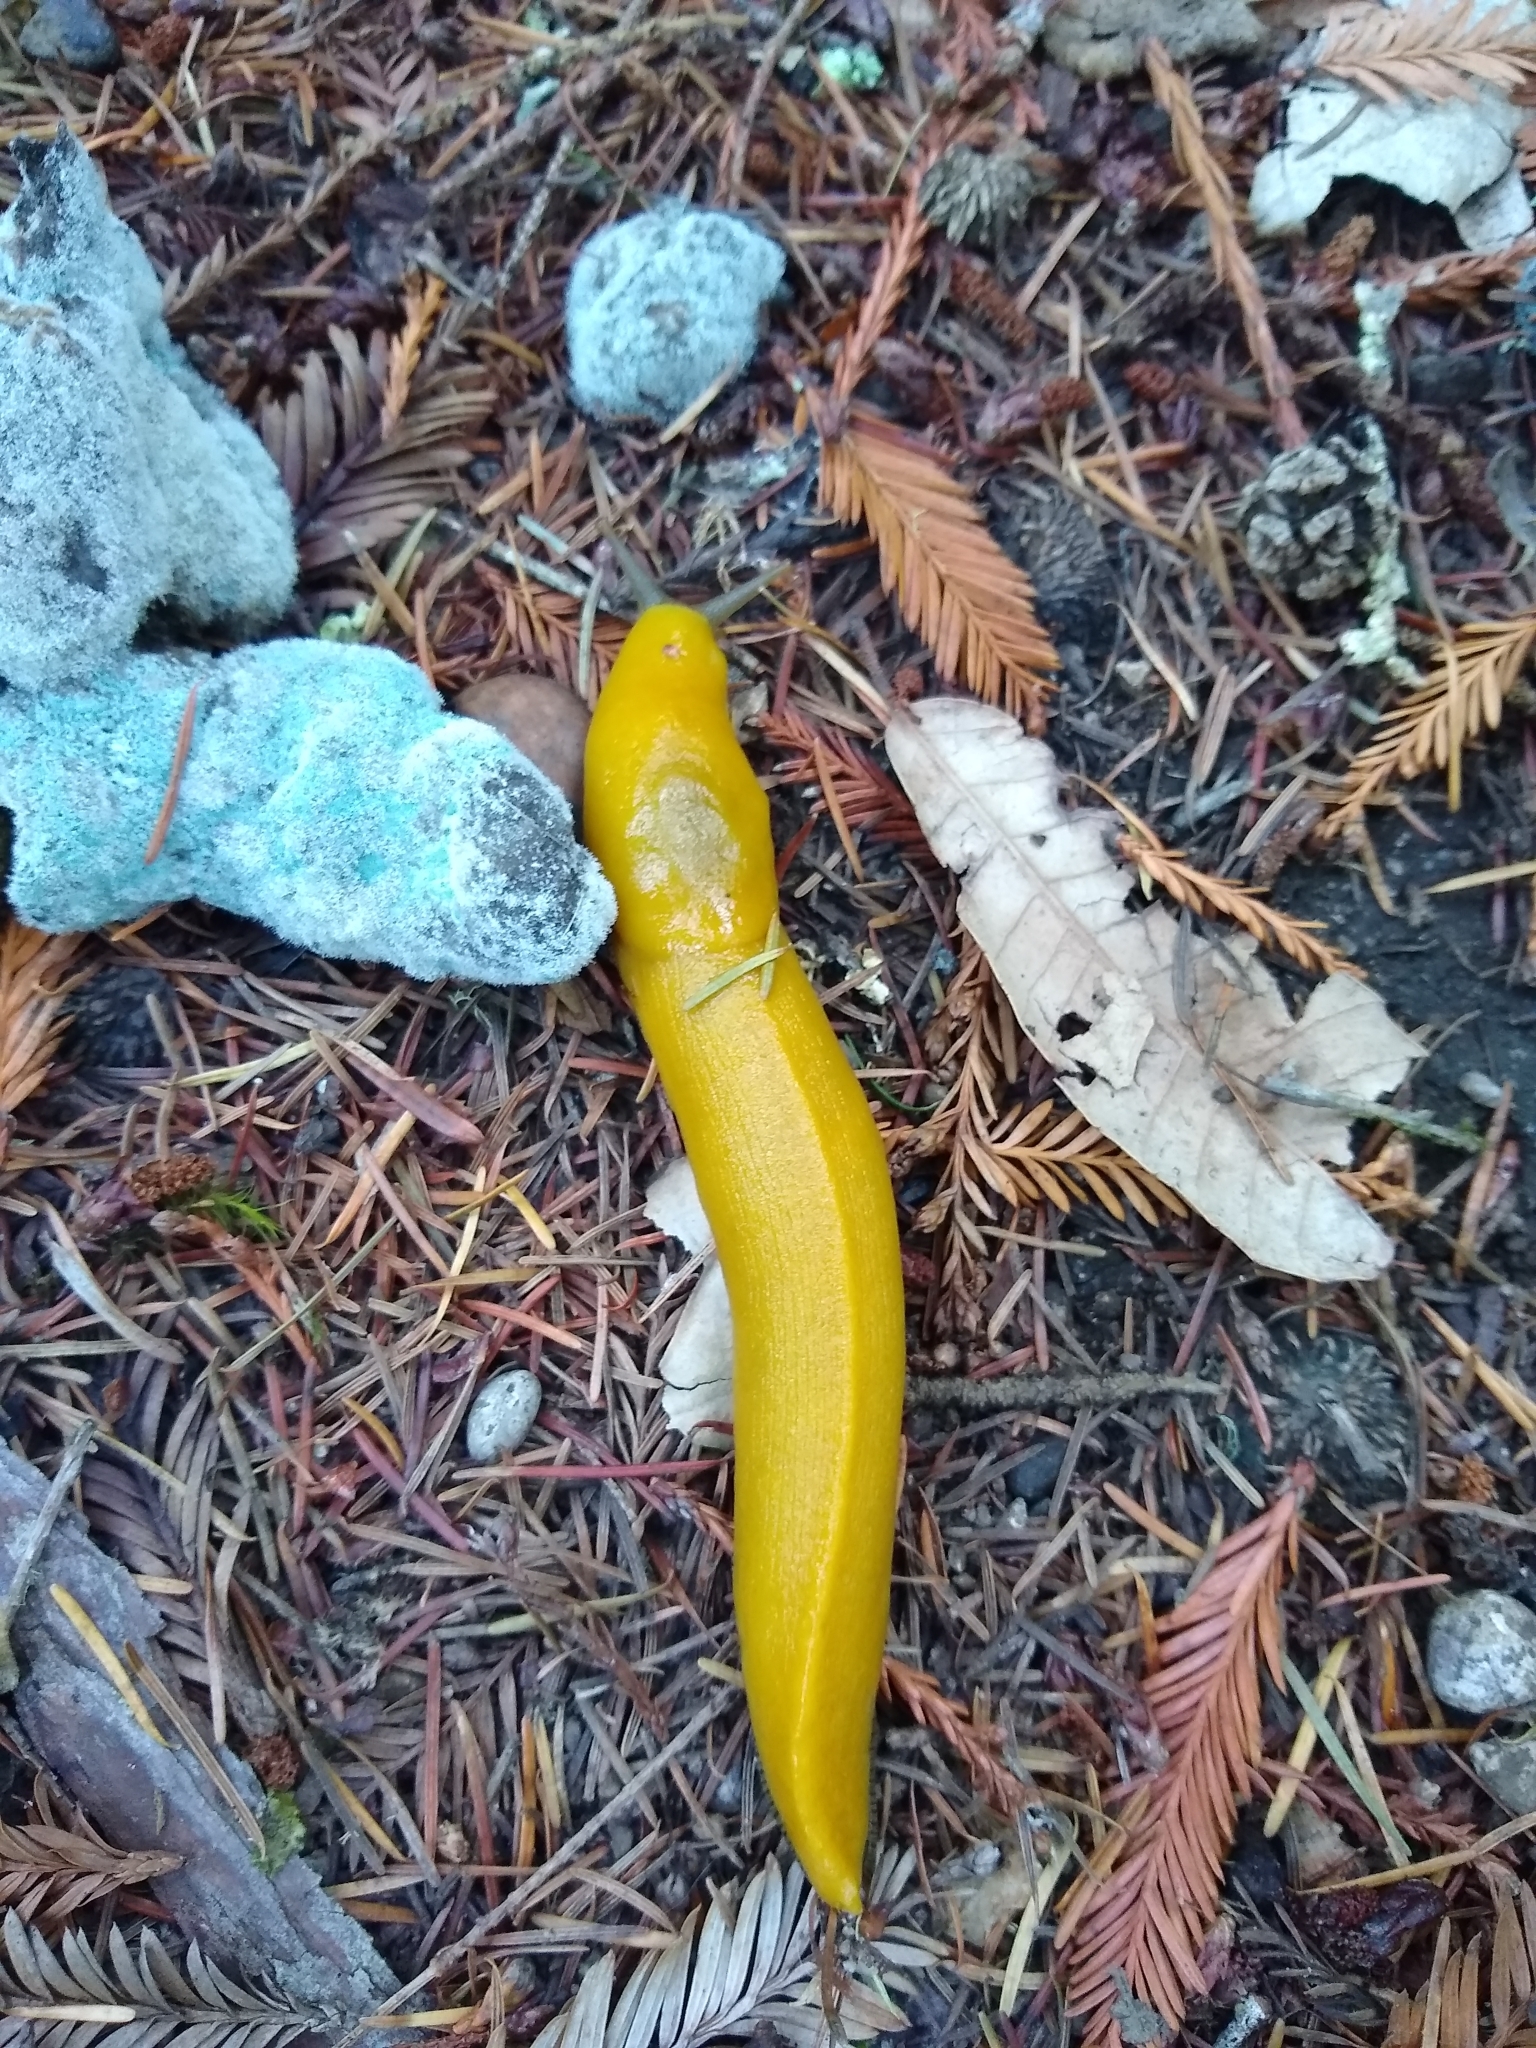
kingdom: Animalia
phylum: Mollusca
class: Gastropoda
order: Stylommatophora
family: Ariolimacidae
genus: Ariolimax
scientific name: Ariolimax dolichophallus
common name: Slender banana slug
